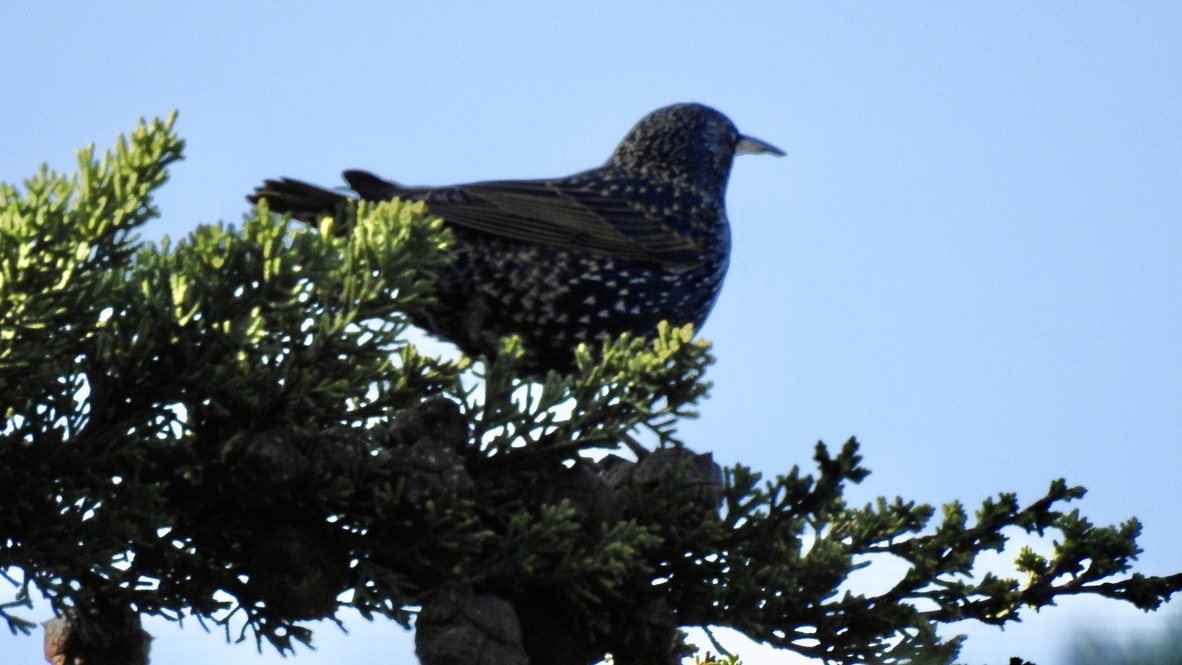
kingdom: Animalia
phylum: Chordata
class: Aves
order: Passeriformes
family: Sturnidae
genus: Sturnus
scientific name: Sturnus vulgaris
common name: Common starling
